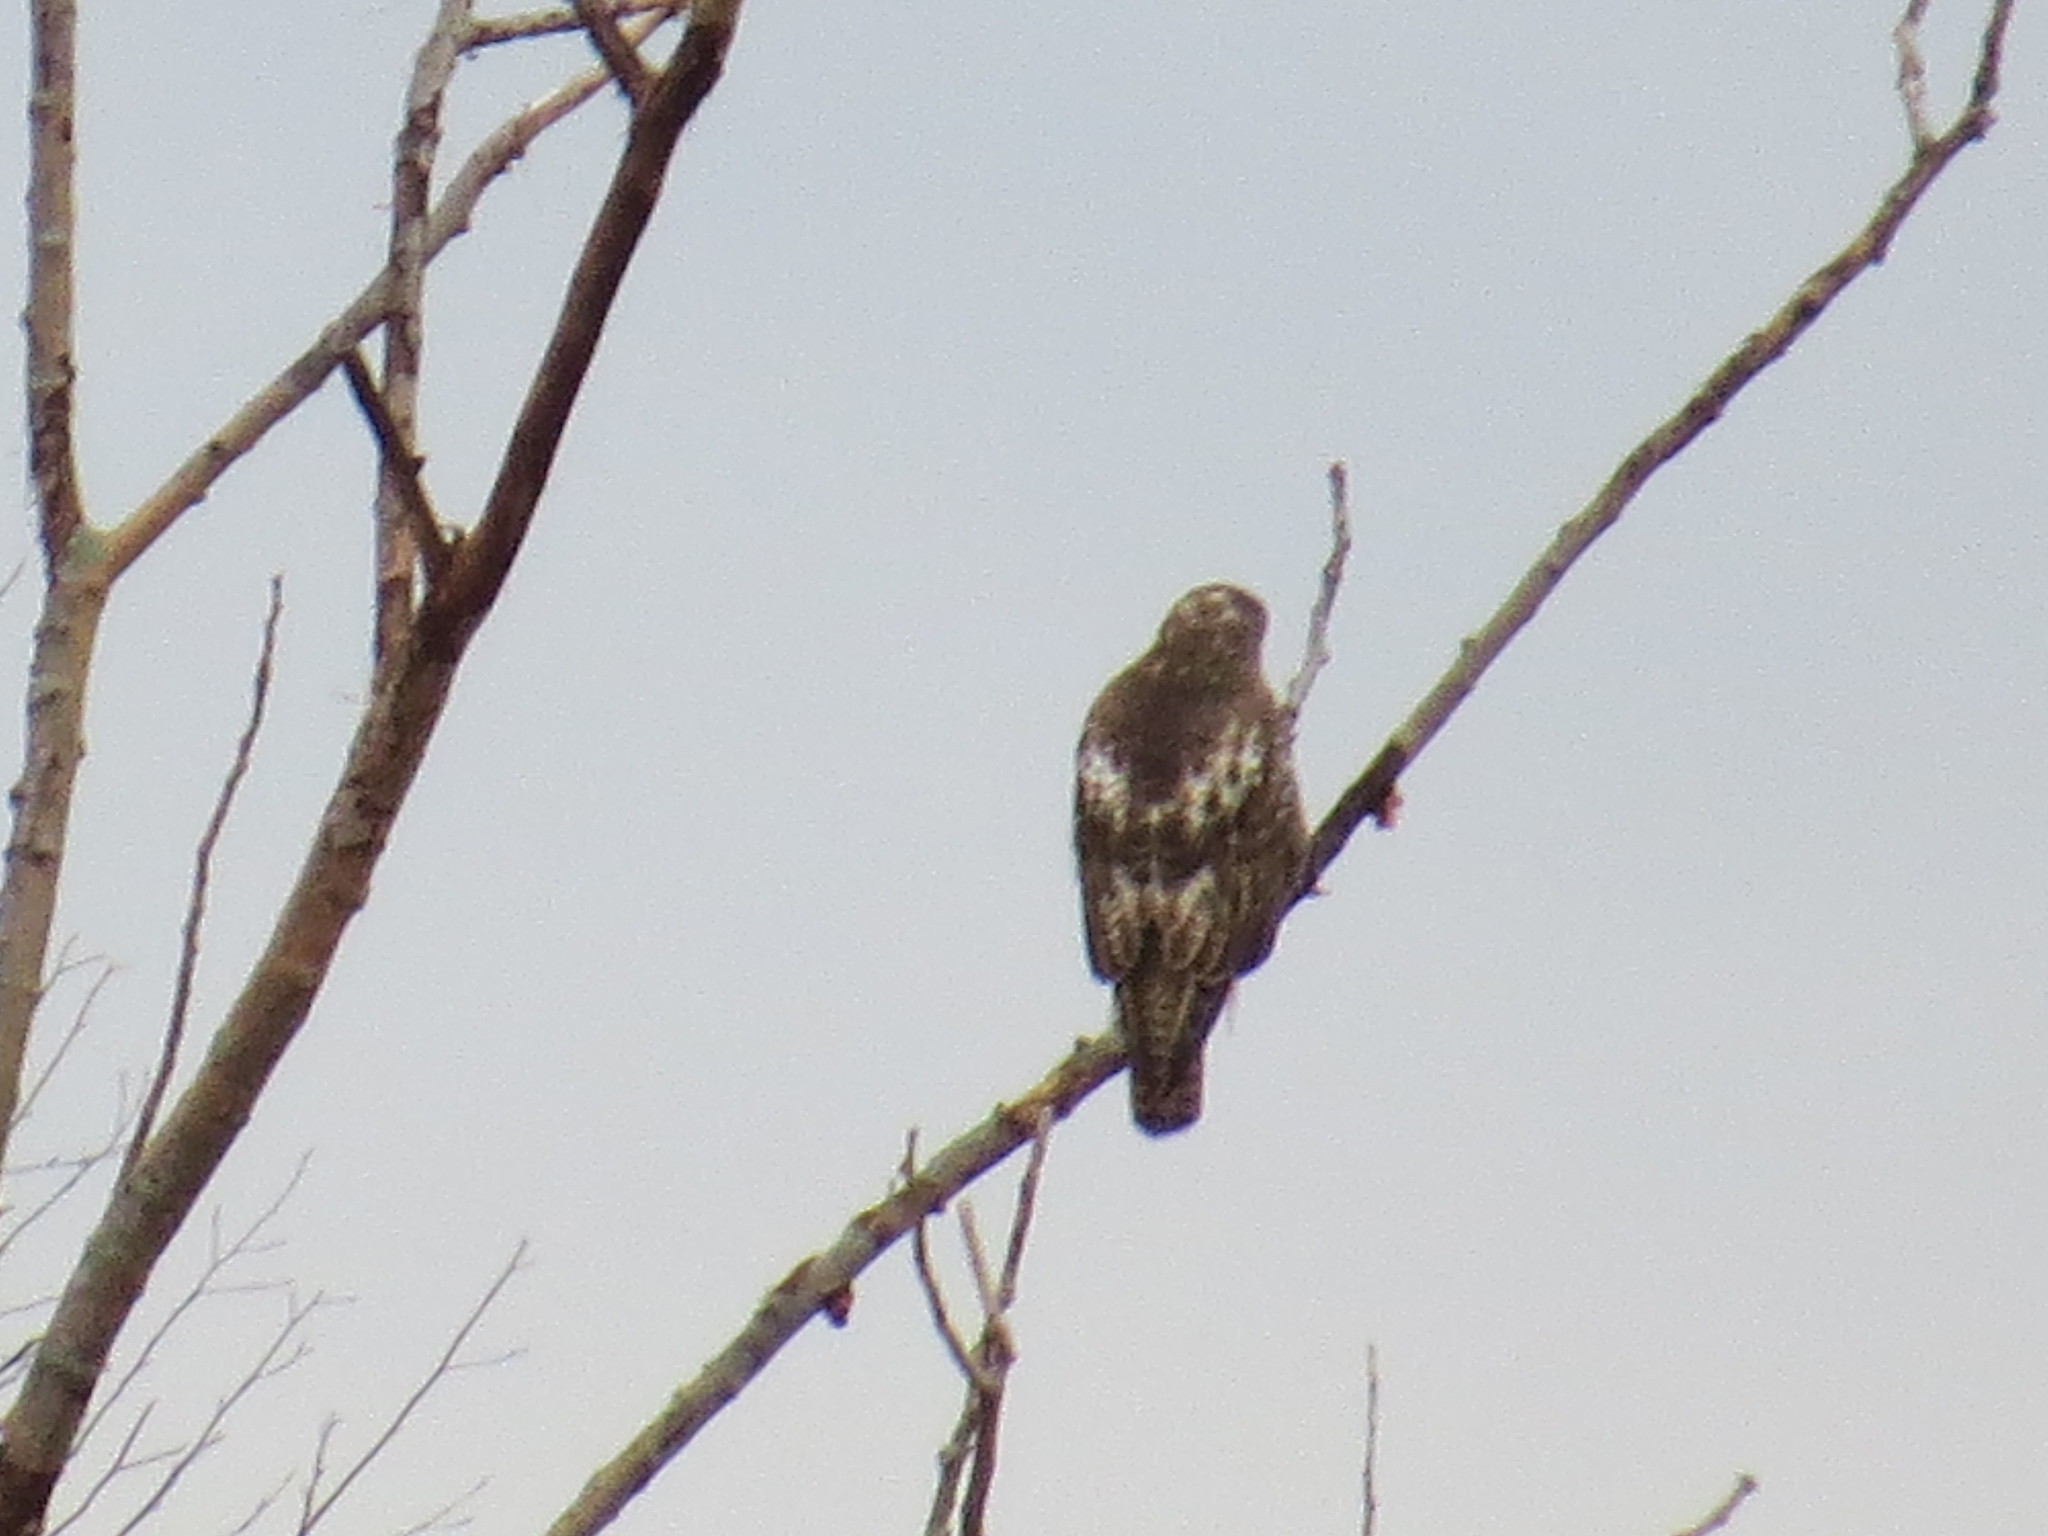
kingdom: Animalia
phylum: Chordata
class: Aves
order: Accipitriformes
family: Accipitridae
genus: Buteo
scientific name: Buteo jamaicensis
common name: Red-tailed hawk
